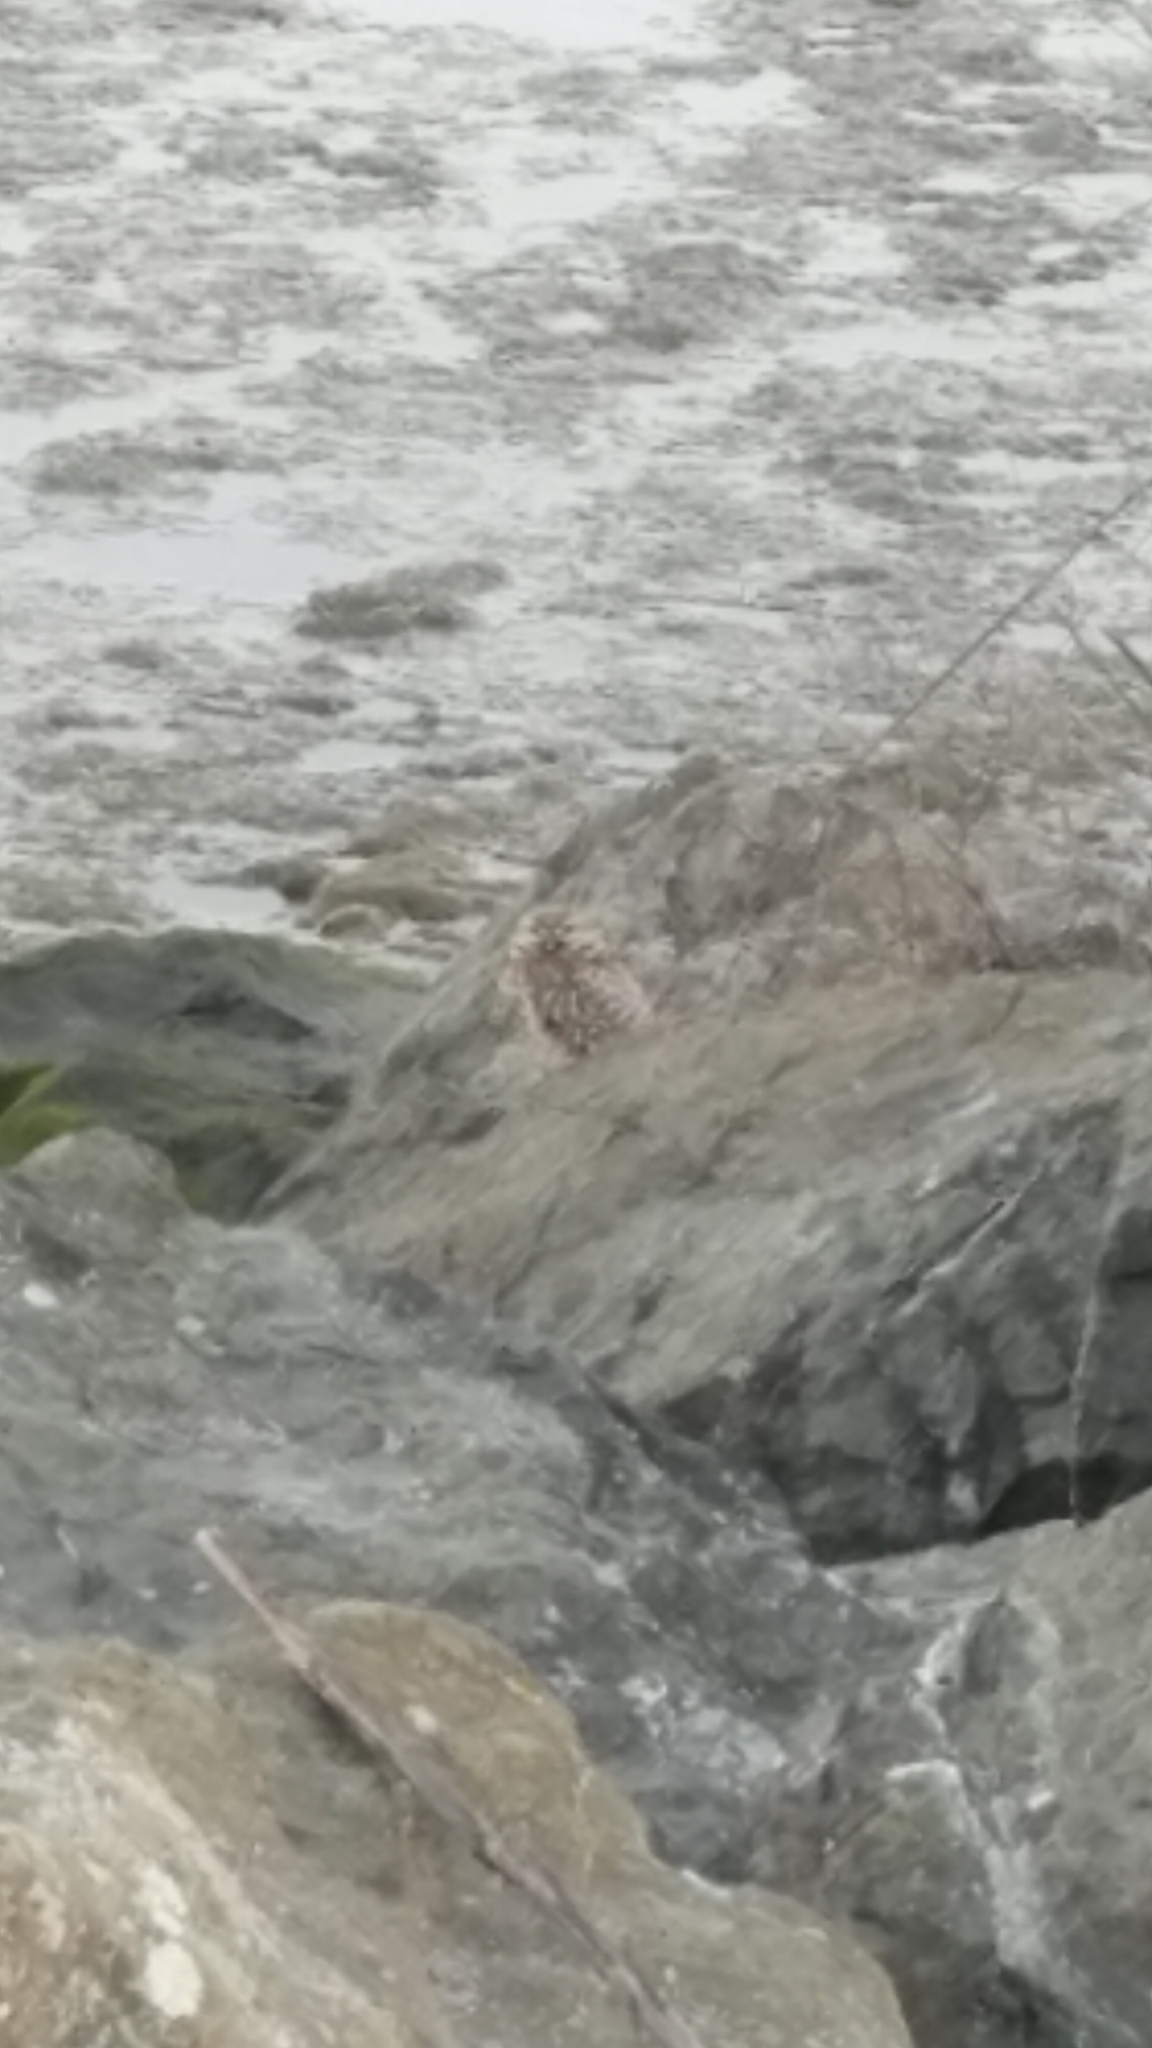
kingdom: Animalia
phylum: Chordata
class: Aves
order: Strigiformes
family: Strigidae
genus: Athene
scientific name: Athene cunicularia
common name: Burrowing owl
